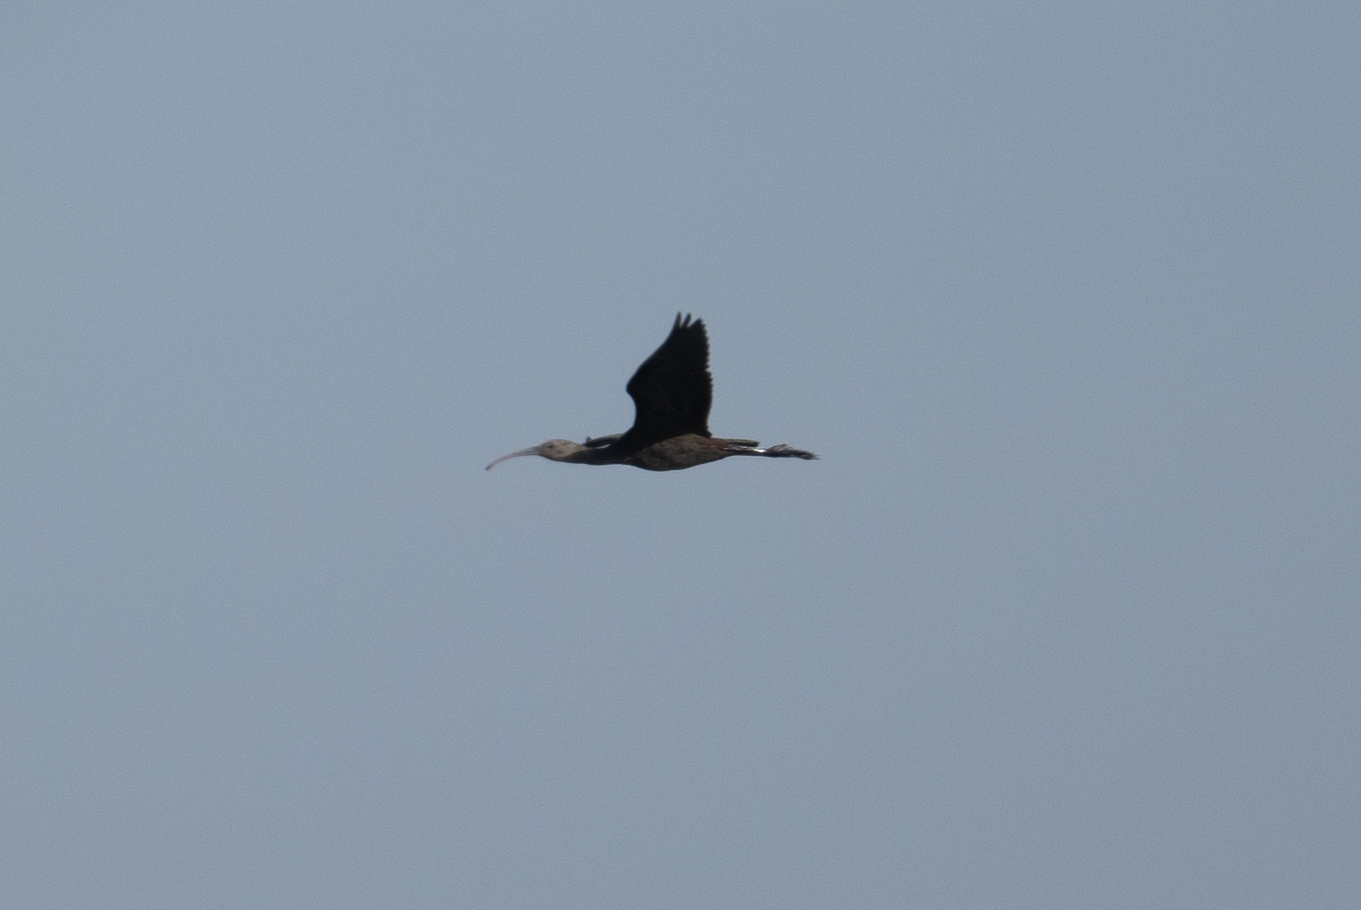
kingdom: Animalia
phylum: Chordata
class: Aves
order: Pelecaniformes
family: Threskiornithidae
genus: Plegadis
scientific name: Plegadis chihi
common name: White-faced ibis
